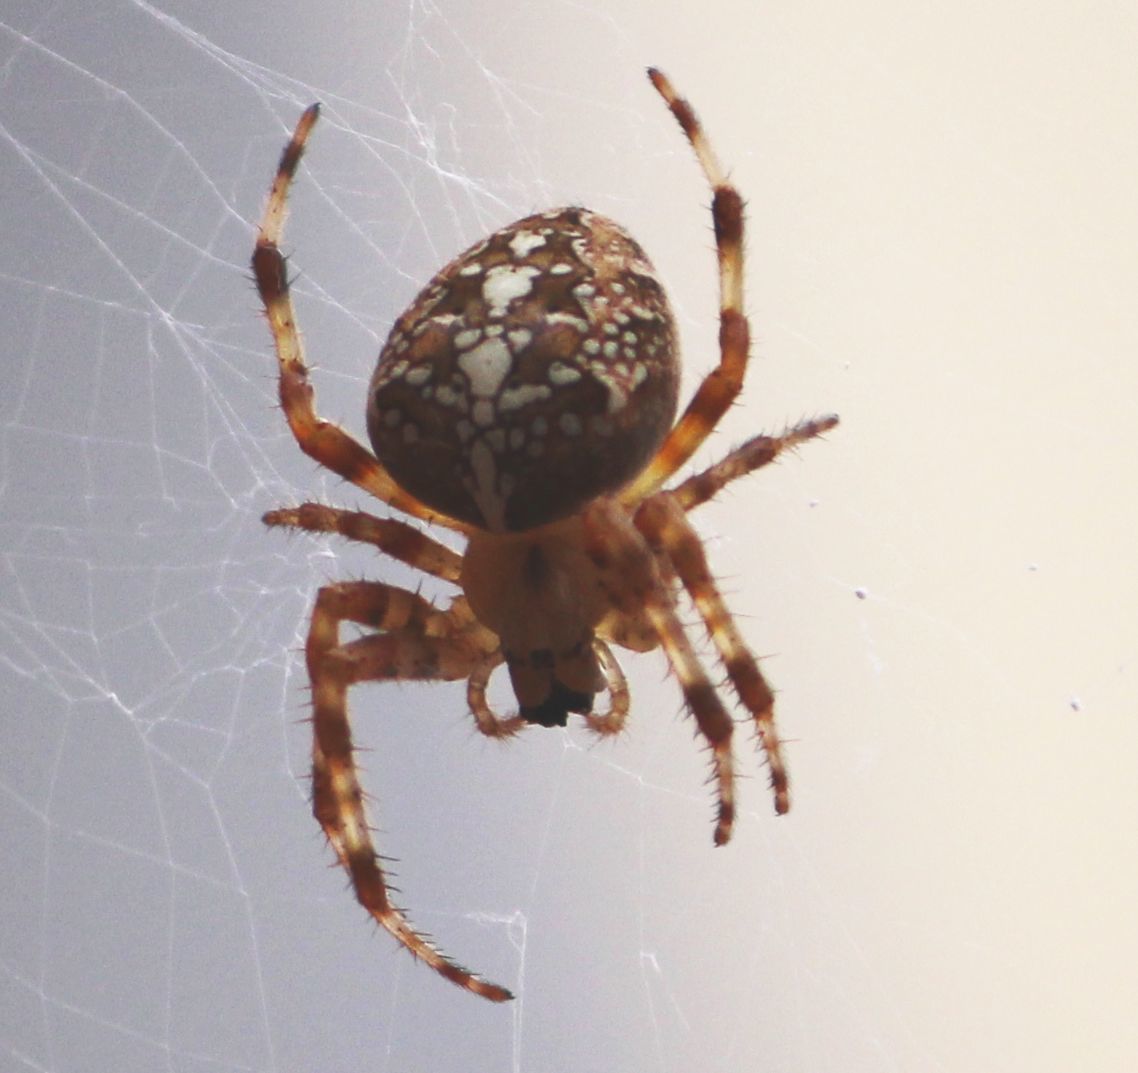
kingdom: Animalia
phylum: Arthropoda
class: Arachnida
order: Araneae
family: Araneidae
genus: Araneus
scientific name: Araneus diadematus
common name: Cross orbweaver
